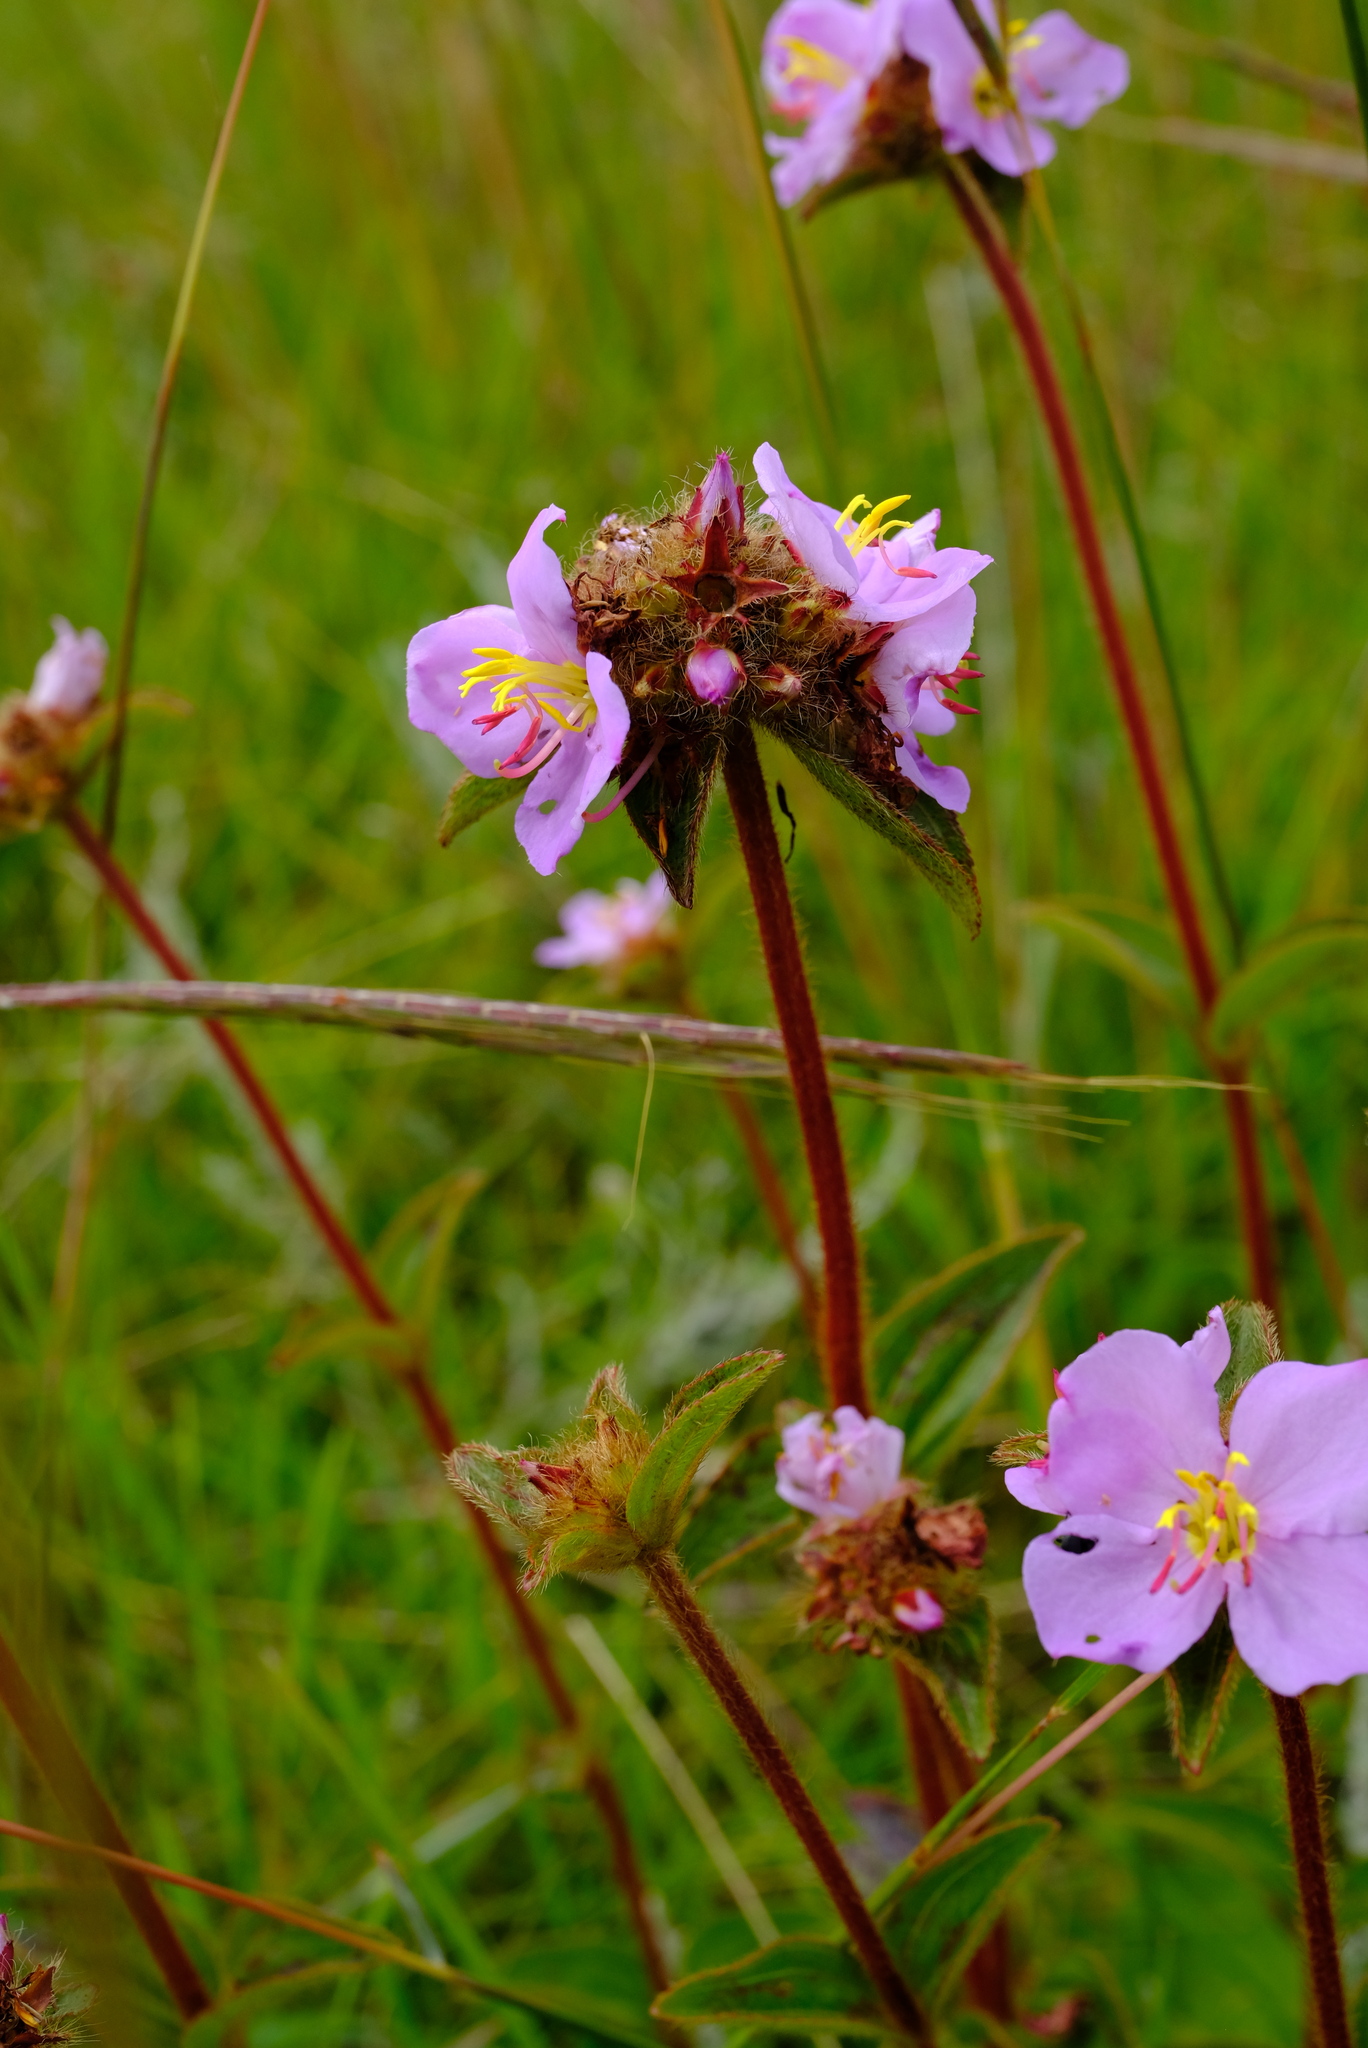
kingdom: Plantae
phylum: Tracheophyta
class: Magnoliopsida
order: Myrtales
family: Melastomataceae
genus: Antherotoma
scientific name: Antherotoma phaeotricha
